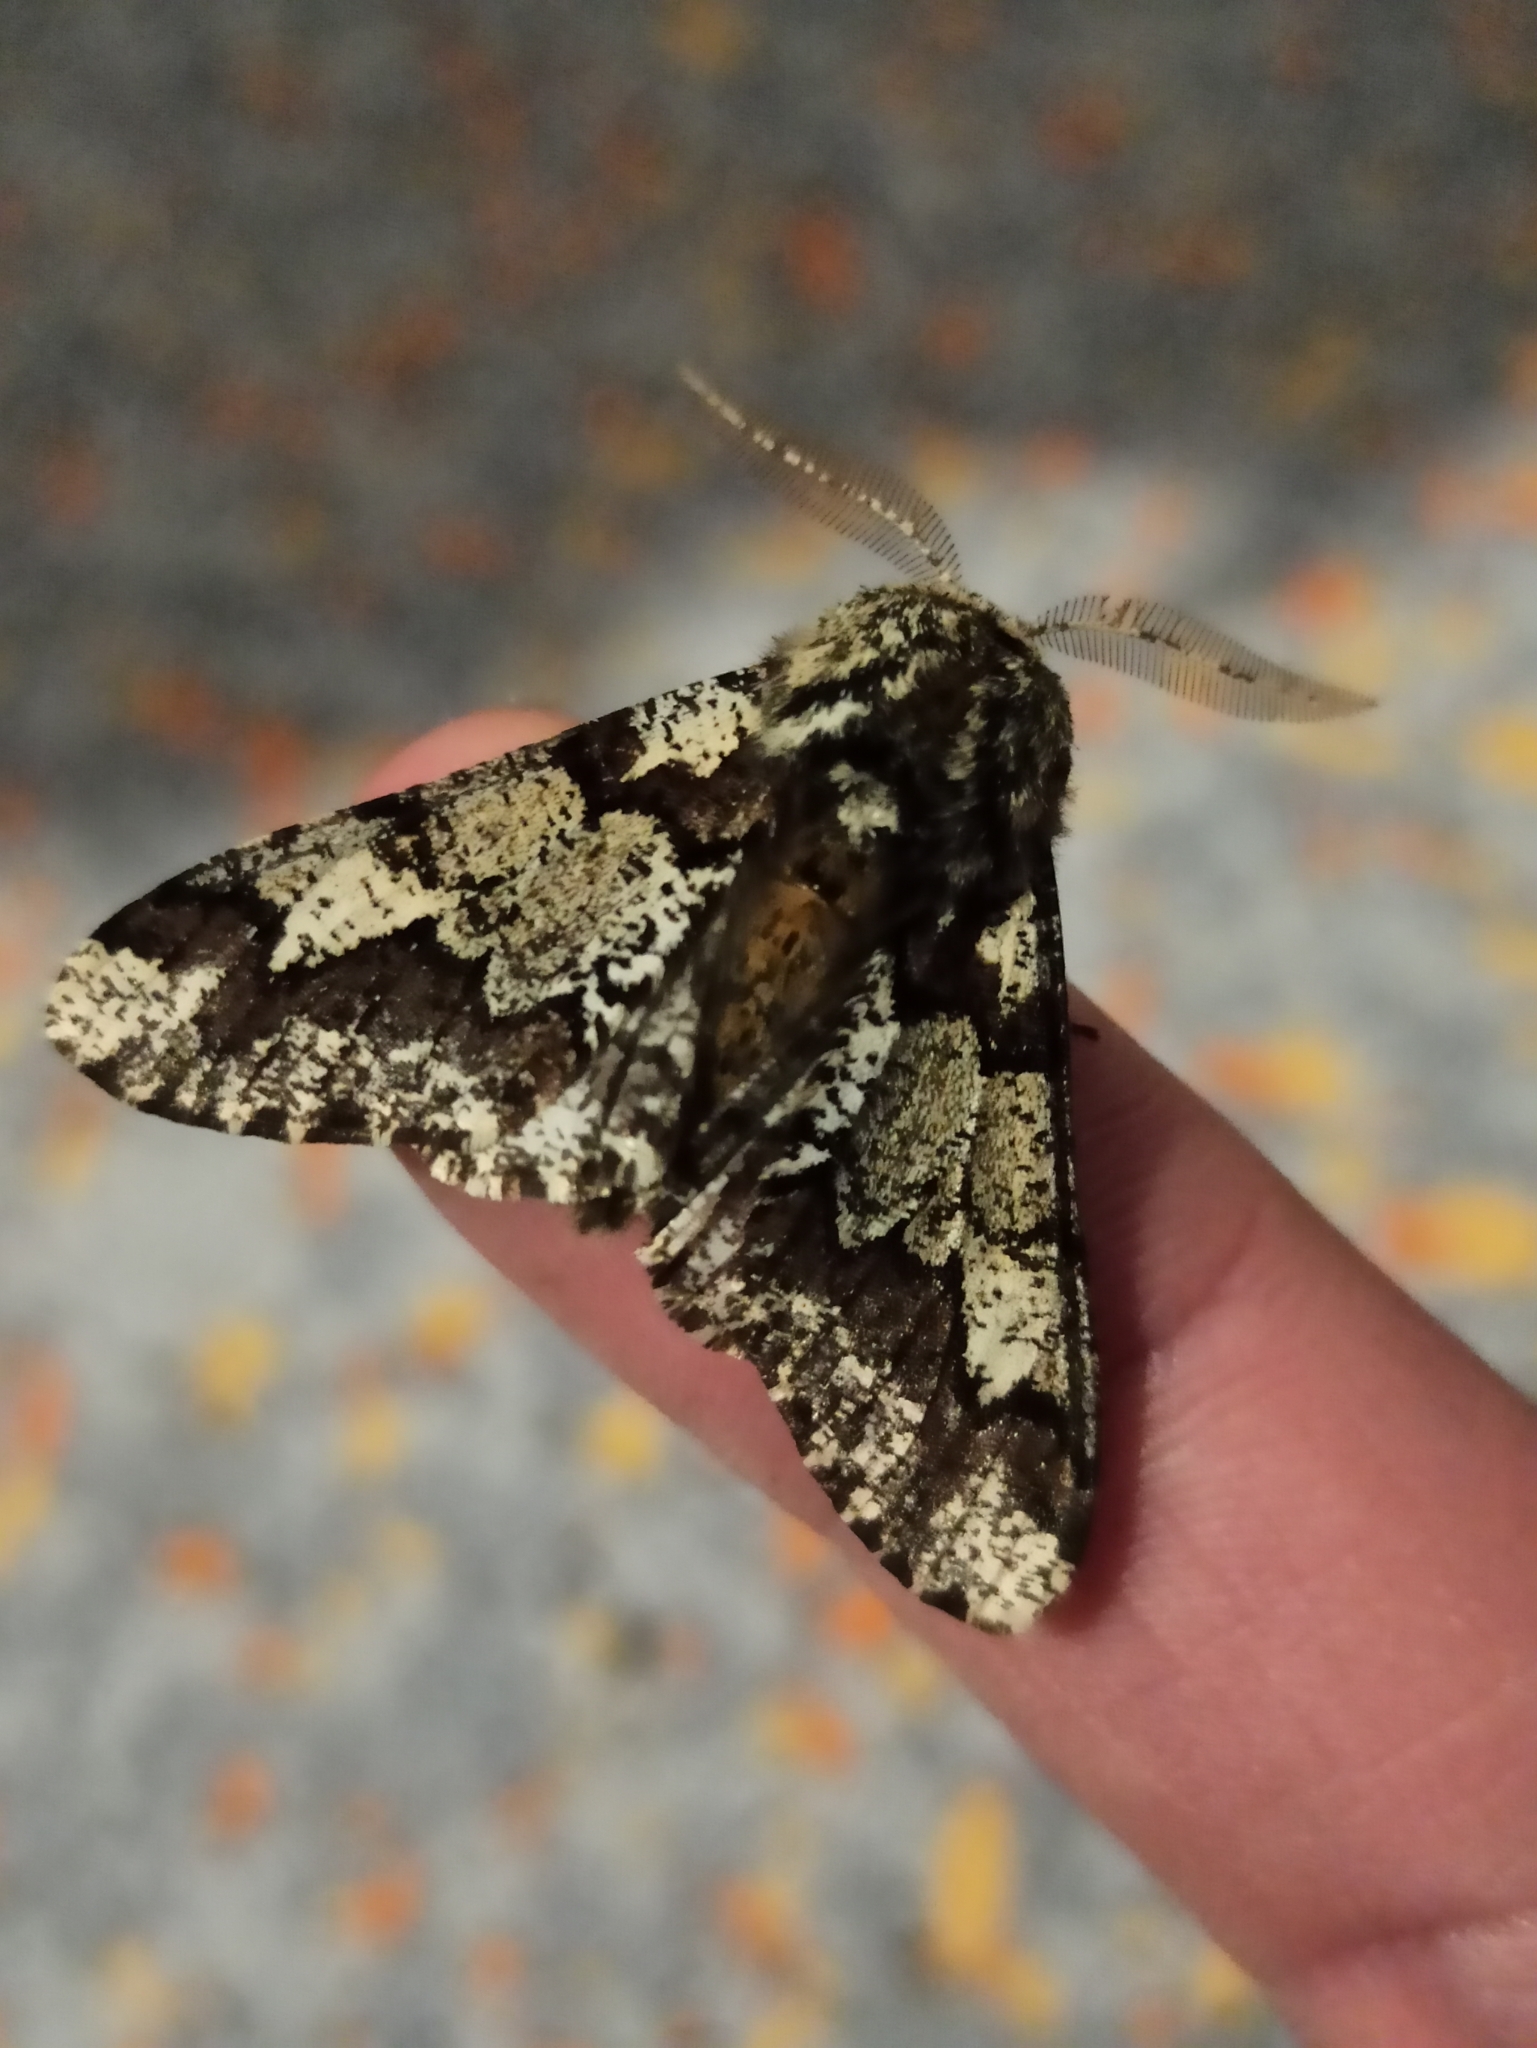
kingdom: Animalia
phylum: Arthropoda
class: Insecta
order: Lepidoptera
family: Geometridae
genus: Biston
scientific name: Biston strataria
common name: Oak beauty
